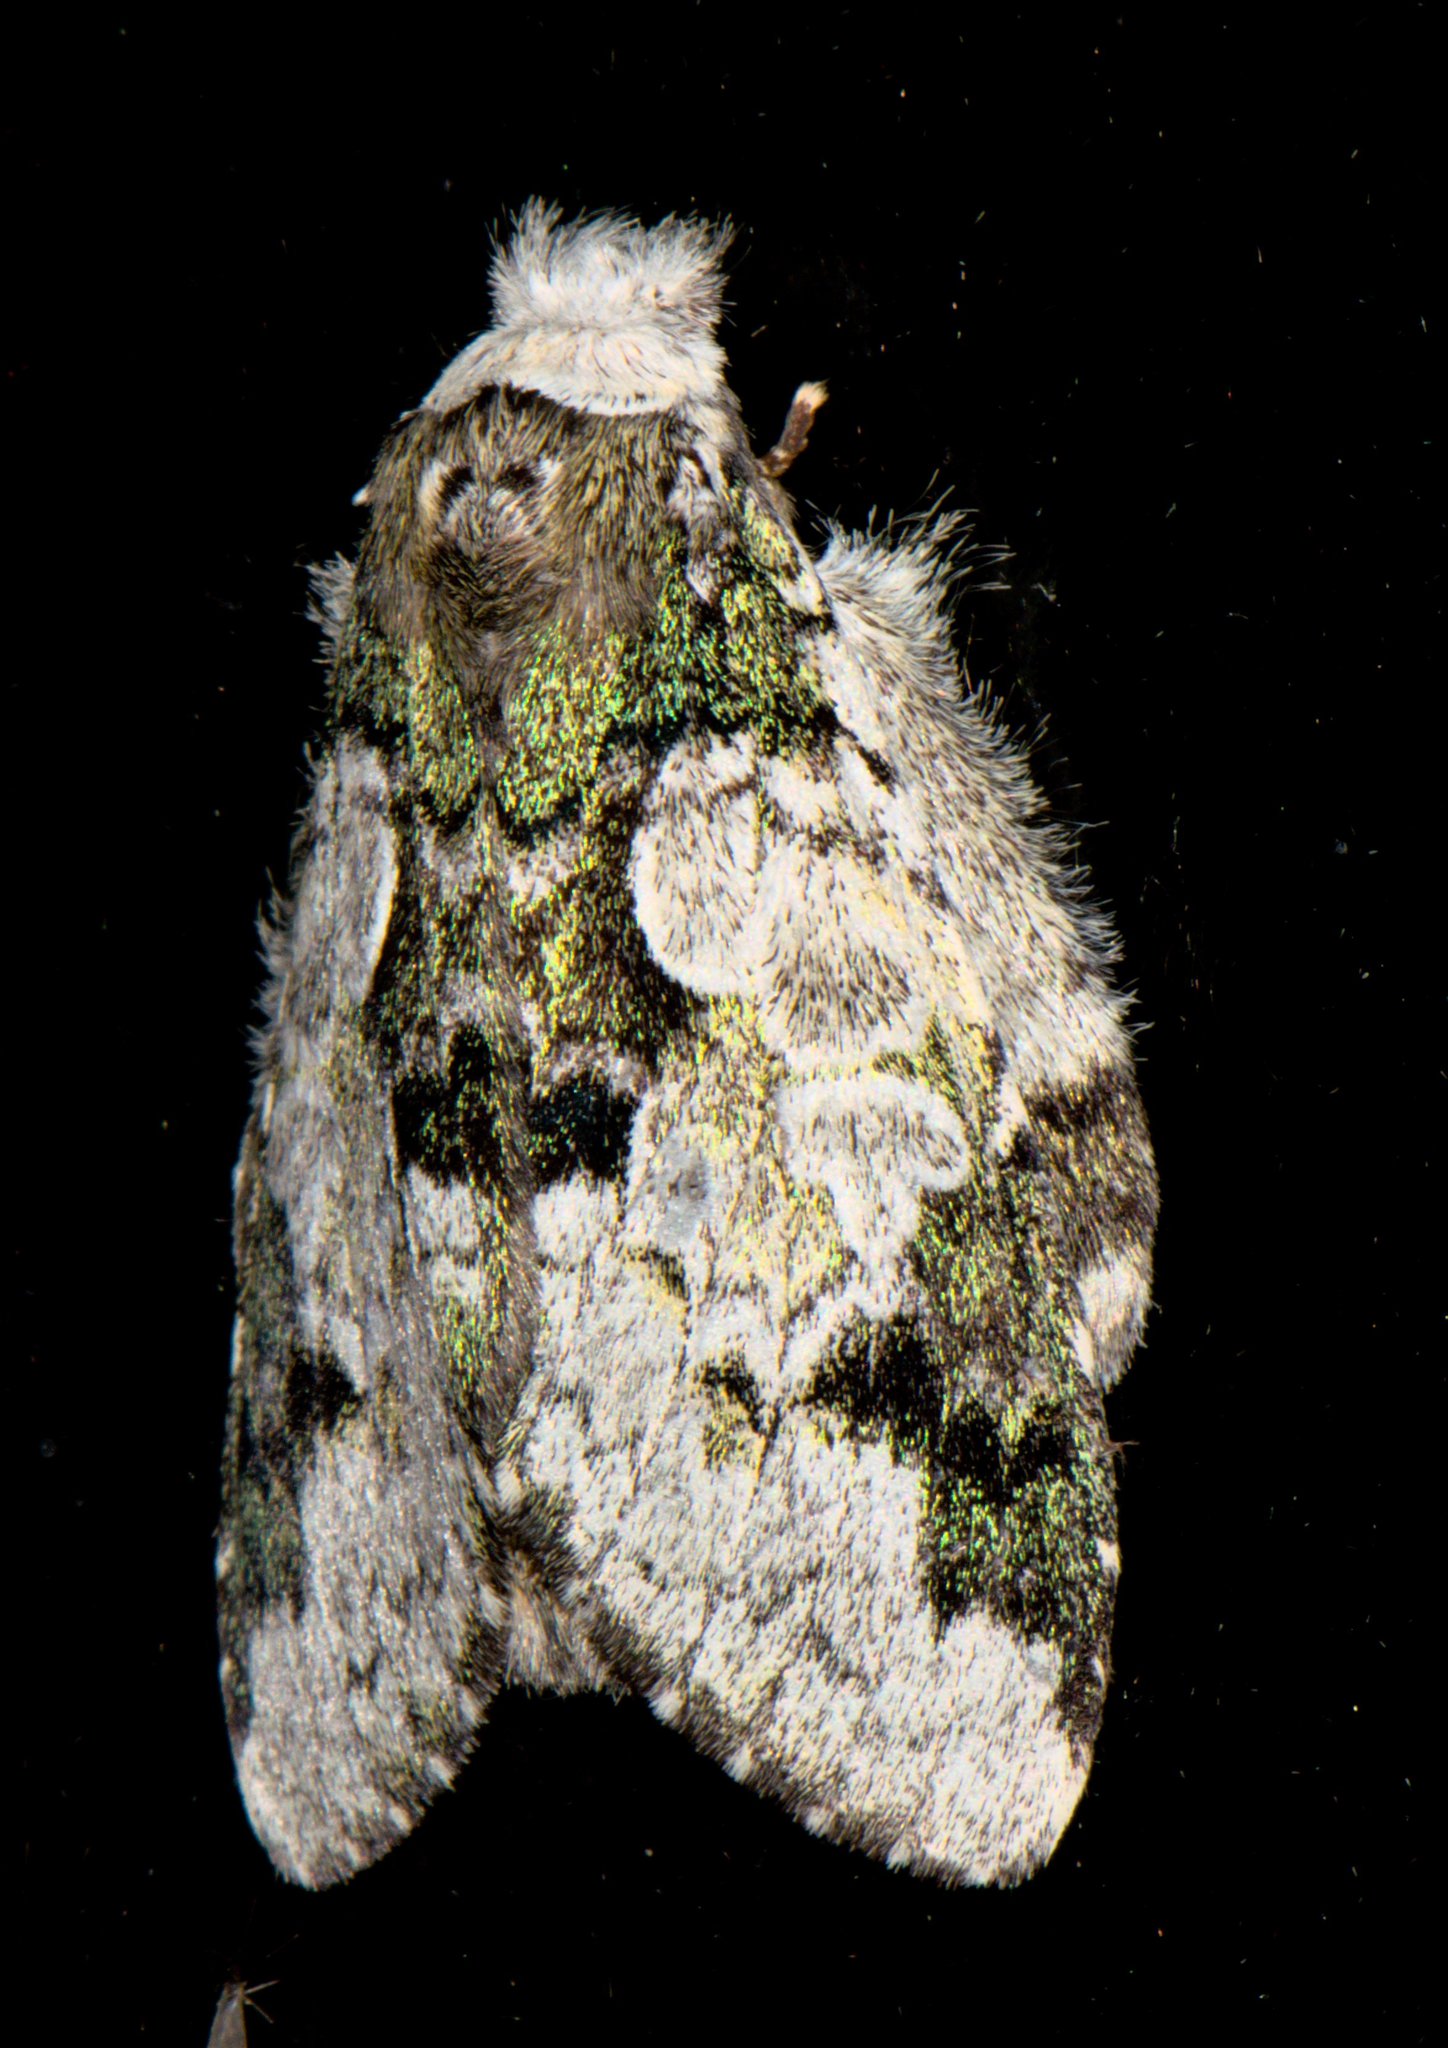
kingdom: Animalia
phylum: Arthropoda
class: Insecta
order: Lepidoptera
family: Notodontidae
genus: Syntypistis
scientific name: Syntypistis comatus
